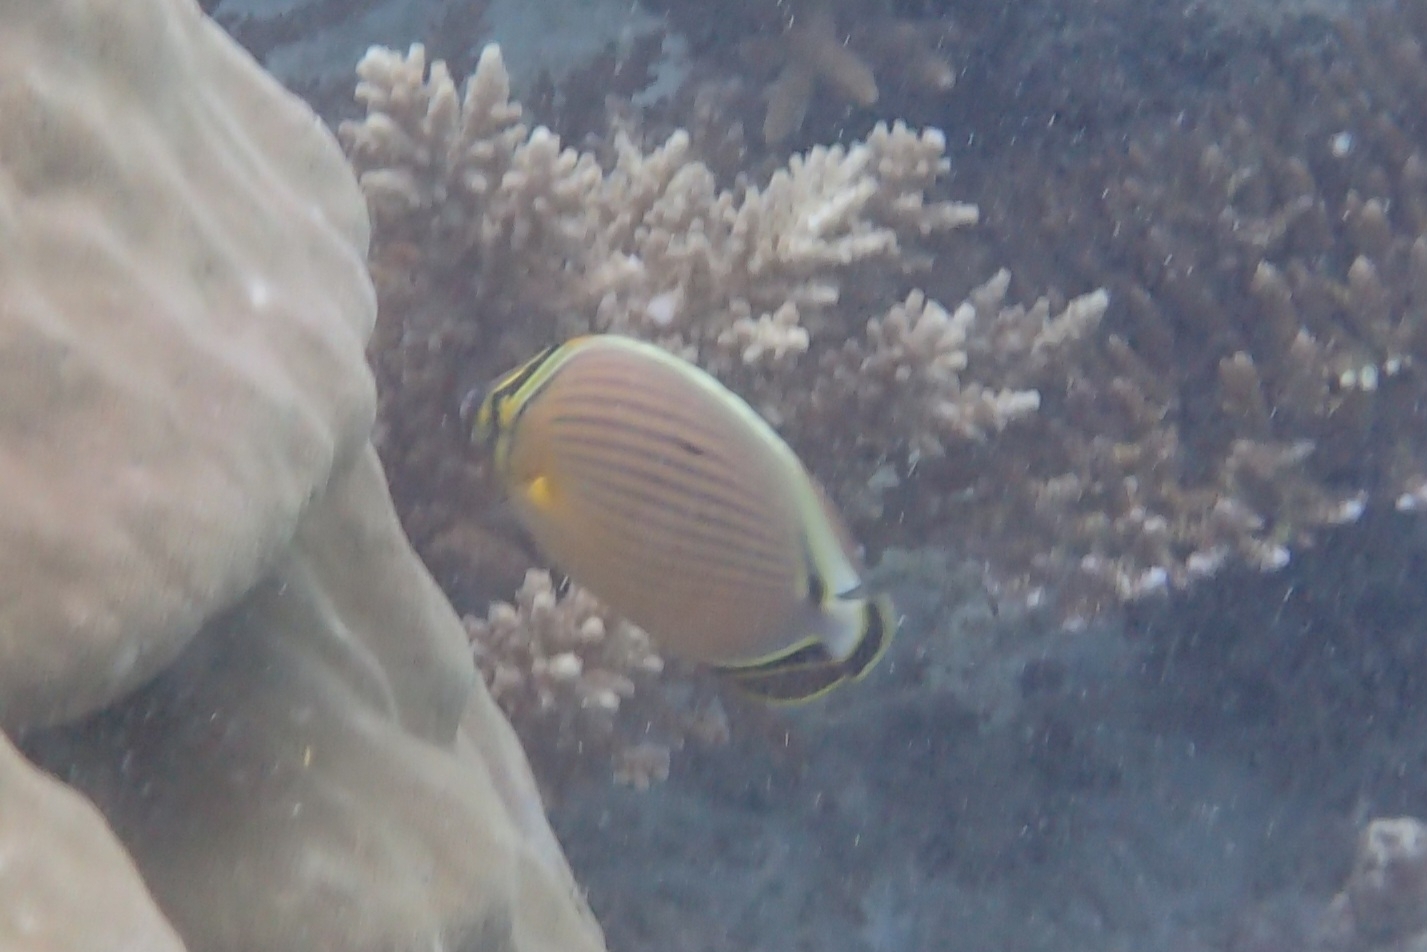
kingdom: Animalia
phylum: Chordata
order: Perciformes
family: Chaetodontidae
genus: Chaetodon
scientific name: Chaetodon lunulatus
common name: Redfin butterflyfish
